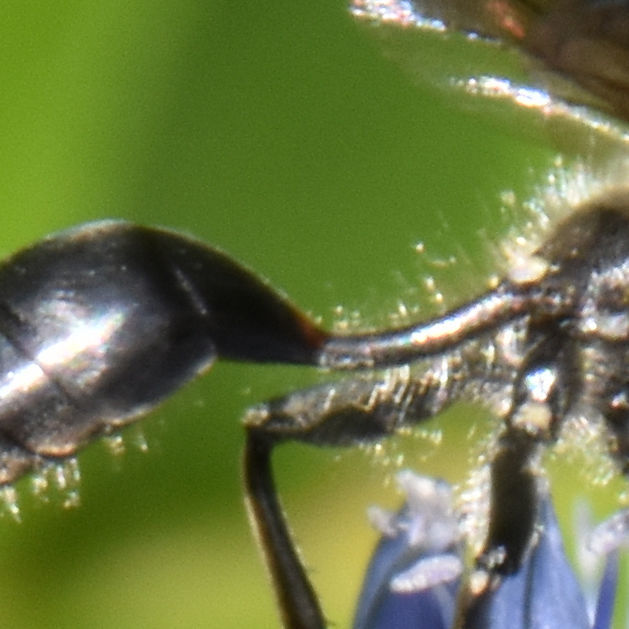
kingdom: Animalia
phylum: Arthropoda
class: Insecta
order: Hymenoptera
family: Sphecidae
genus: Isodontia
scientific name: Isodontia mexicana
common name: Mud dauber
